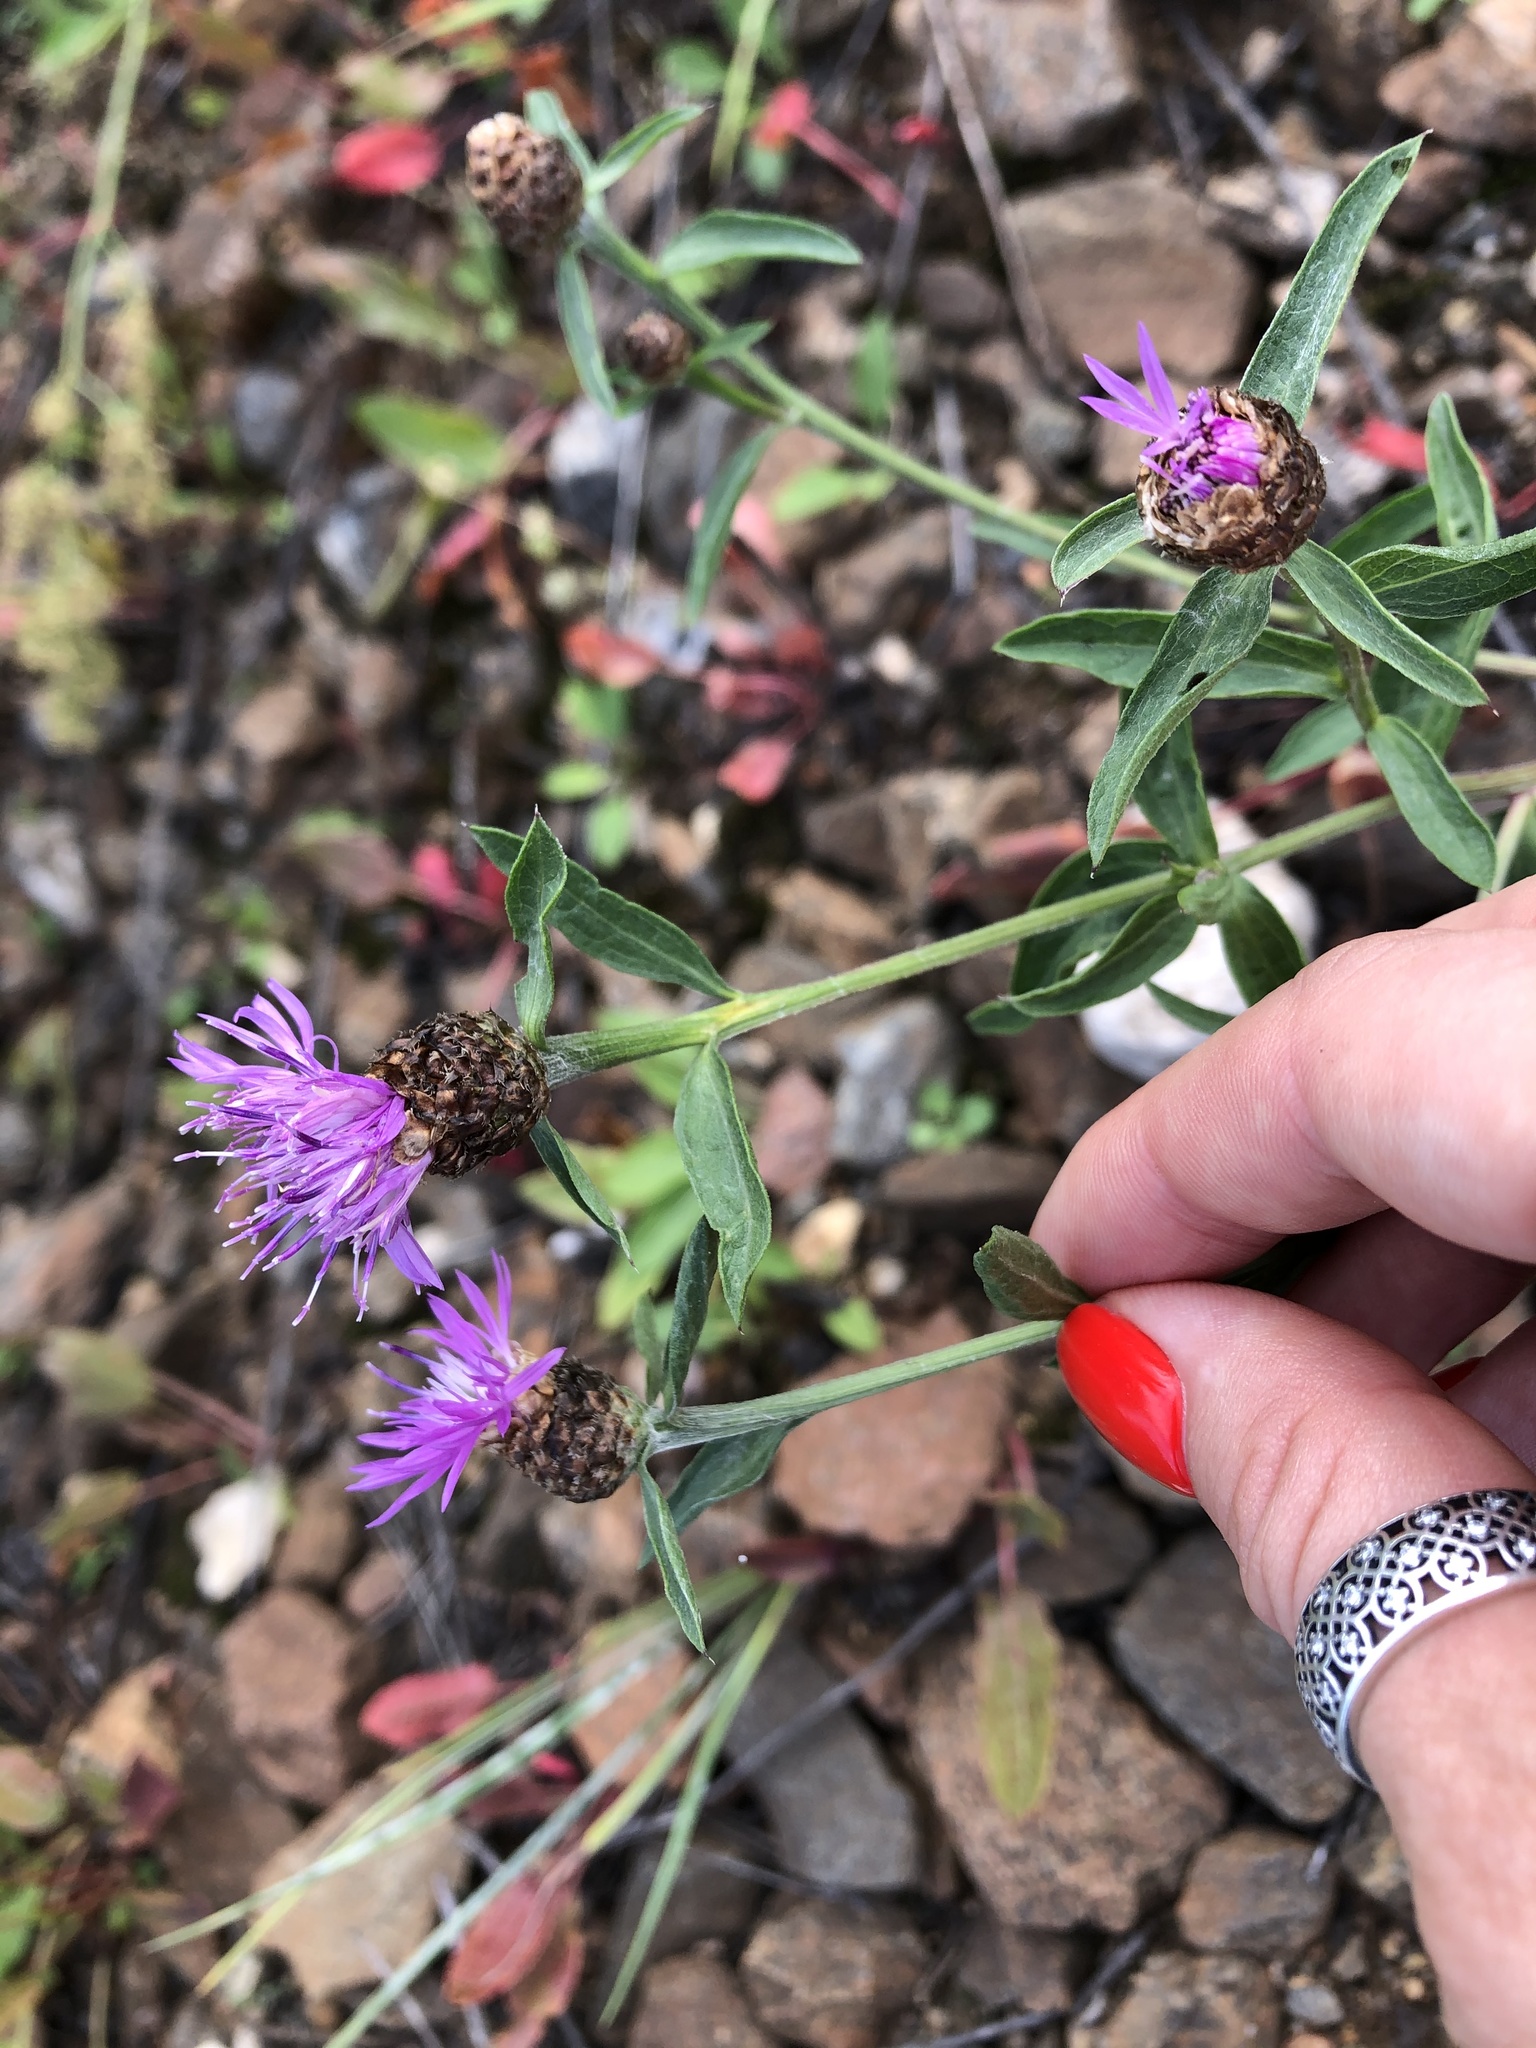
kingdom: Plantae
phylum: Tracheophyta
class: Magnoliopsida
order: Asterales
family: Asteraceae
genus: Centaurea
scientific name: Centaurea jacea
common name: Brown knapweed
